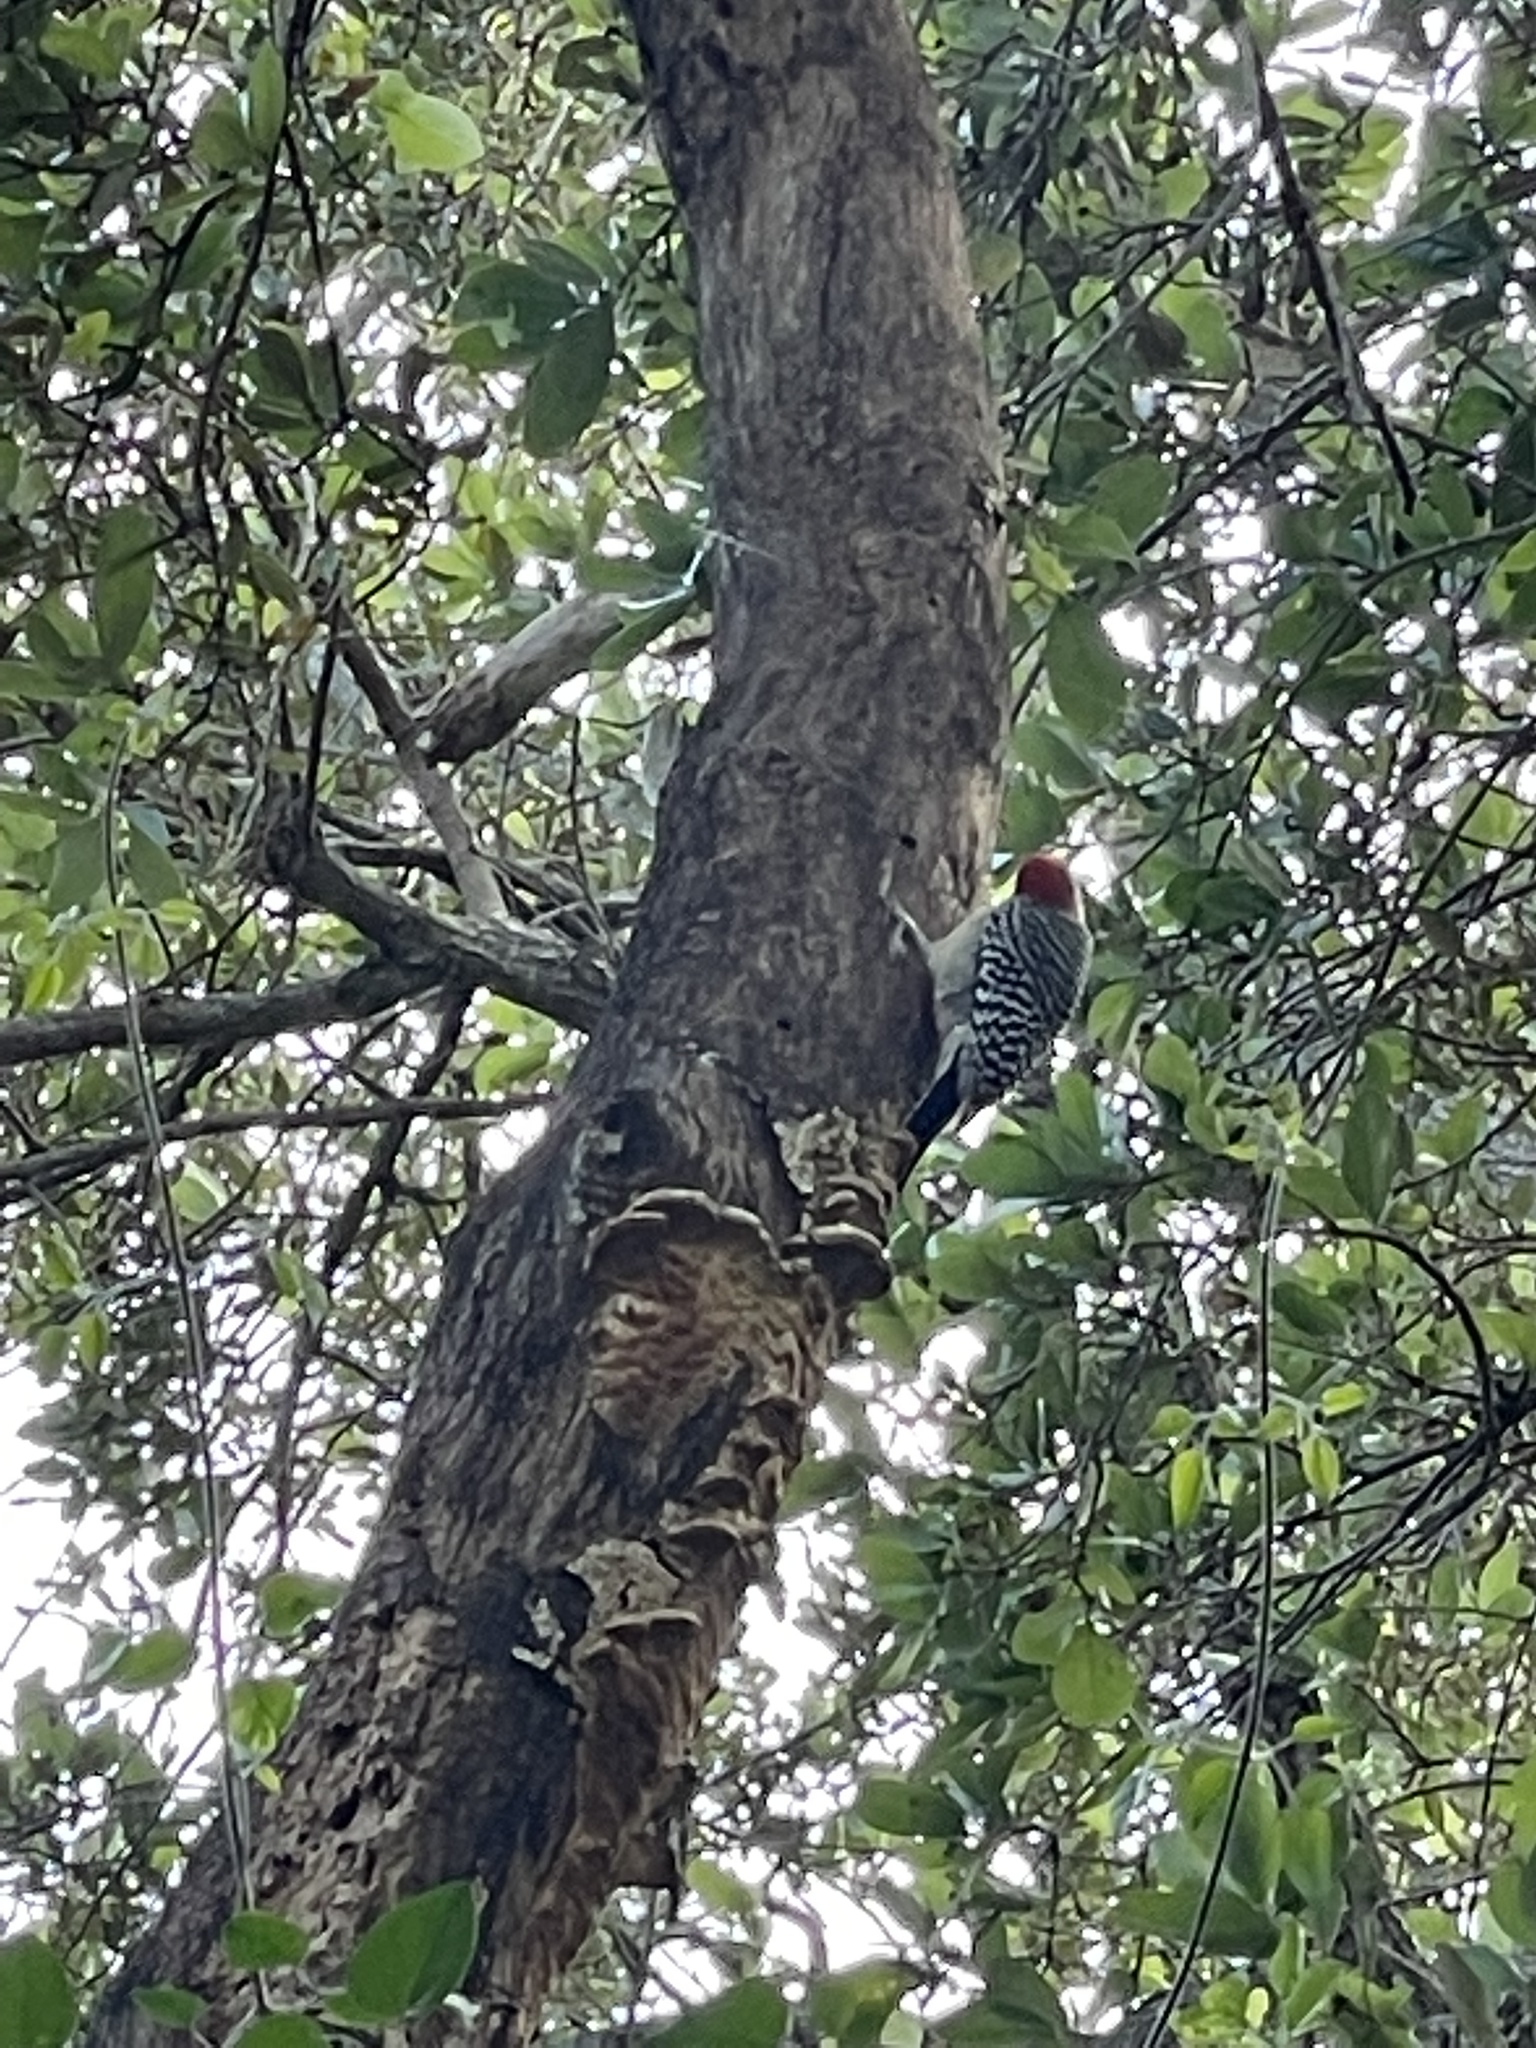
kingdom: Animalia
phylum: Chordata
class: Aves
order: Piciformes
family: Picidae
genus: Melanerpes
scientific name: Melanerpes carolinus
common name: Red-bellied woodpecker
